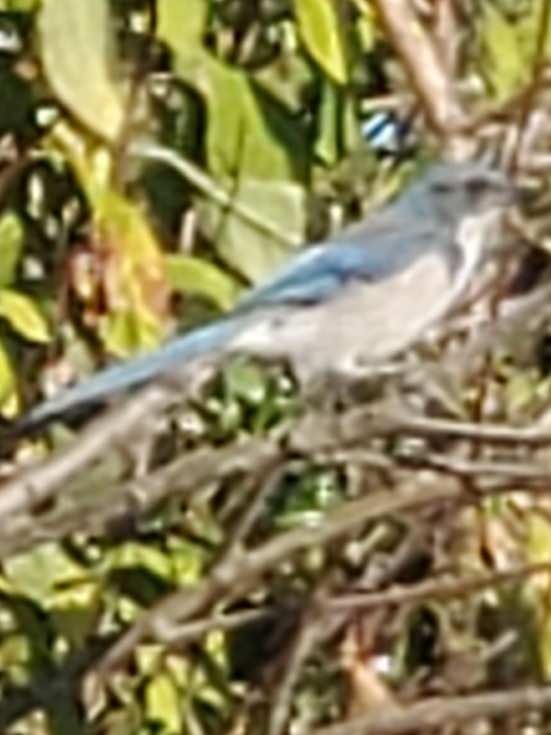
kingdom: Animalia
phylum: Chordata
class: Aves
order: Passeriformes
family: Corvidae
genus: Aphelocoma
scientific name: Aphelocoma californica
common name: California scrub-jay
